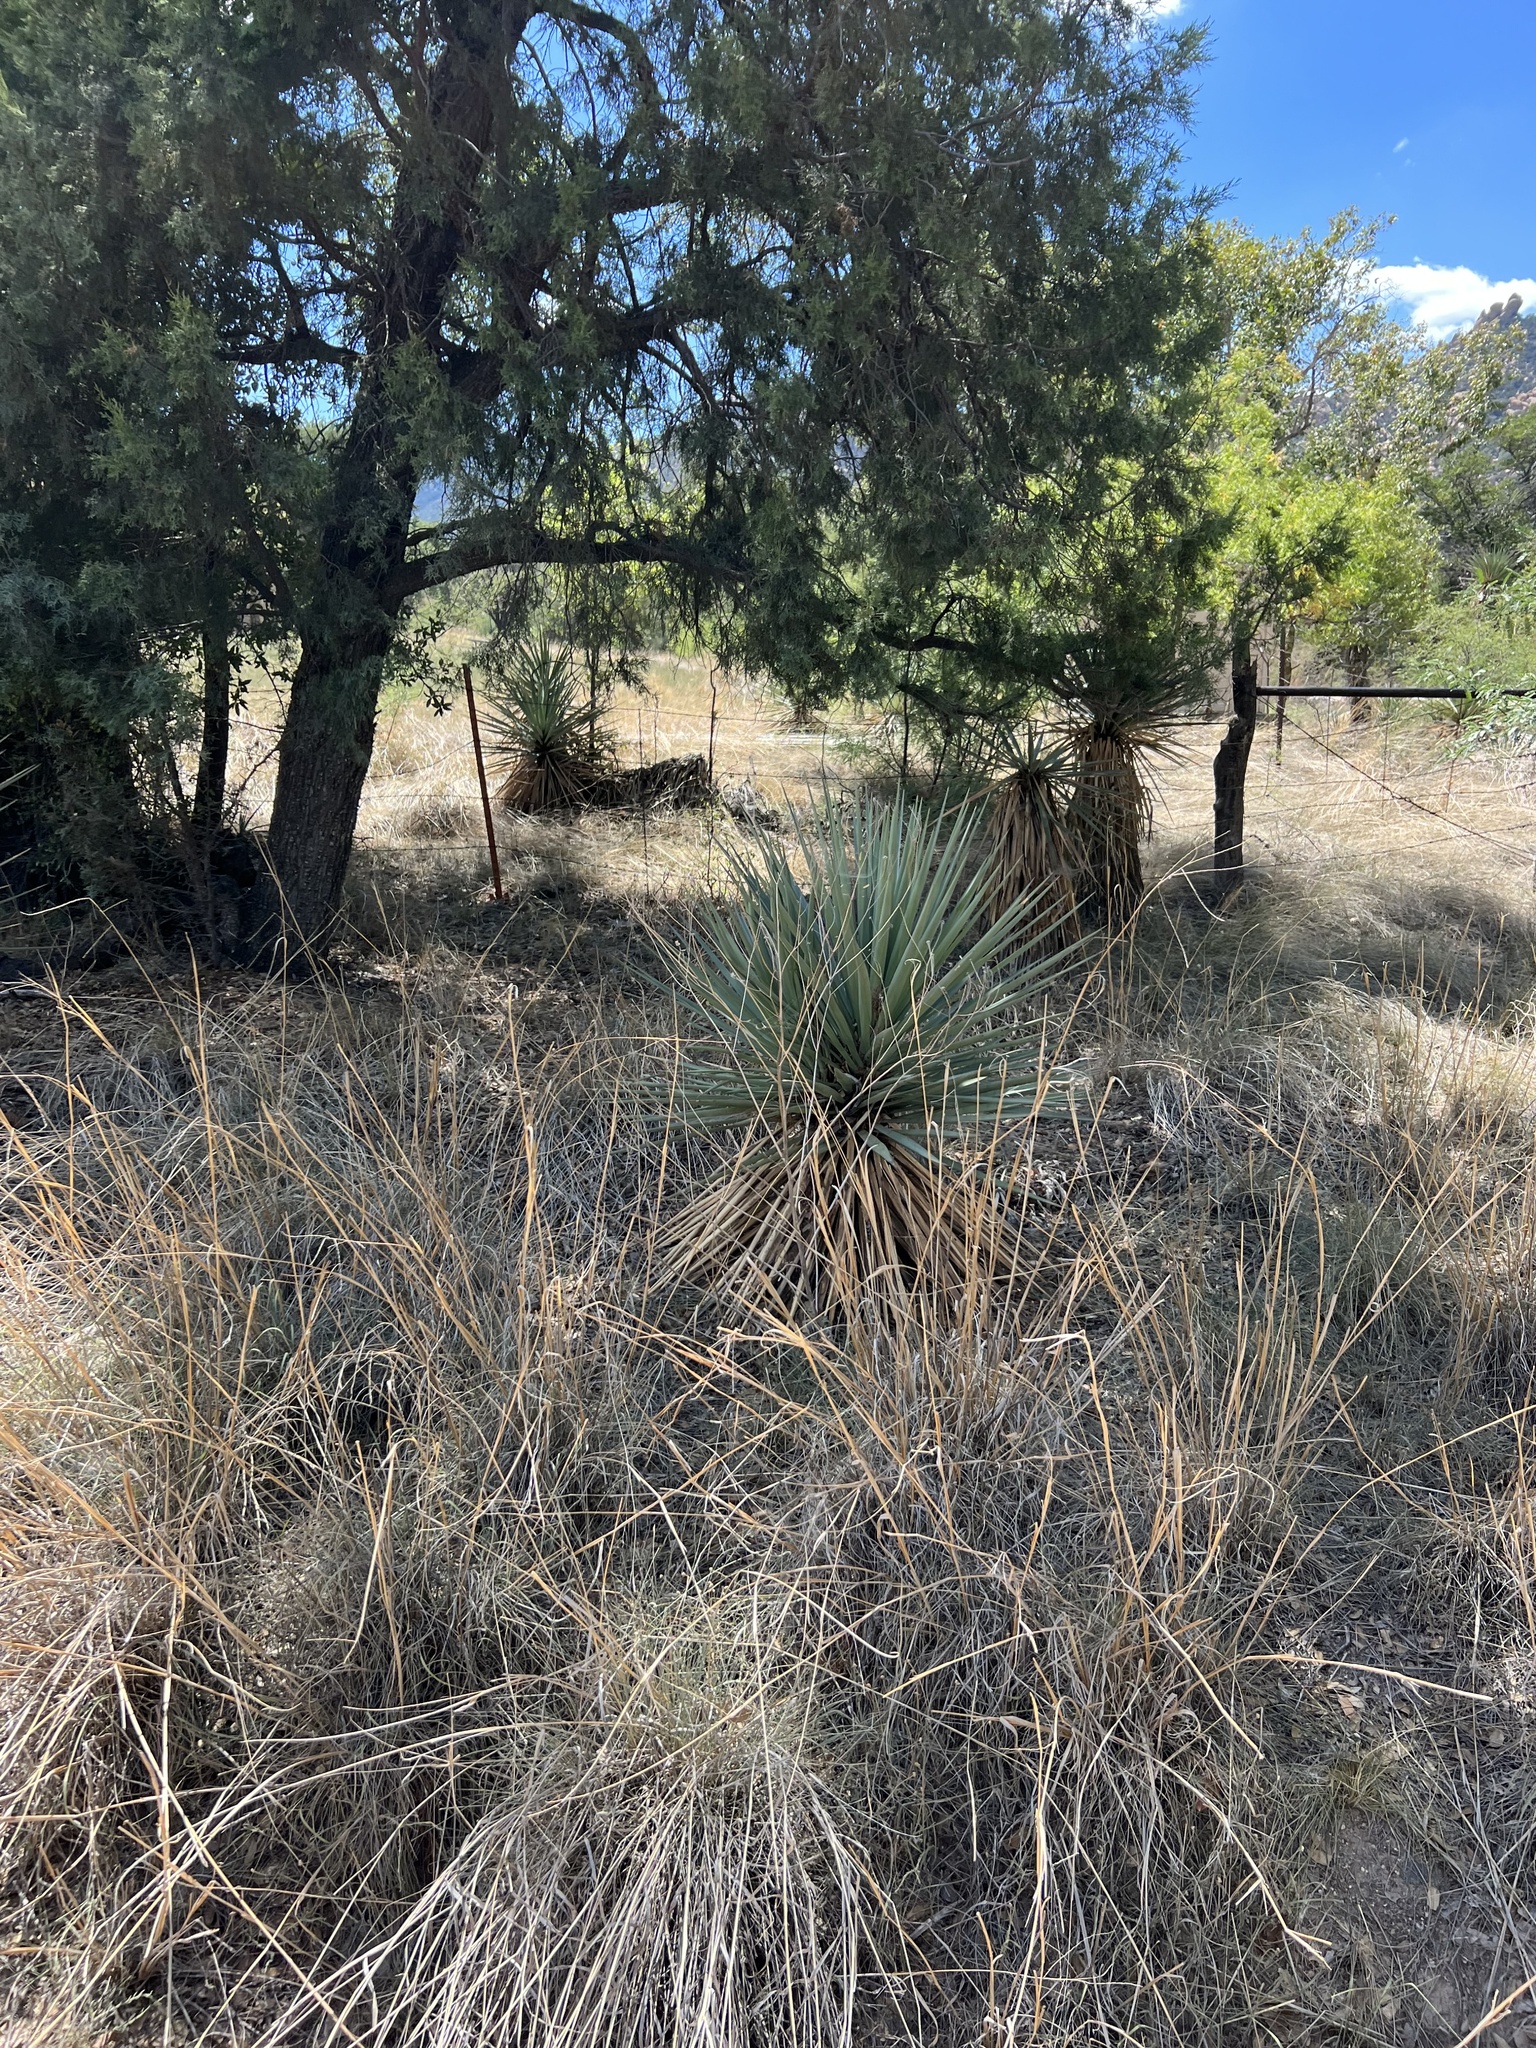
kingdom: Plantae
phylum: Tracheophyta
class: Liliopsida
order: Asparagales
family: Asparagaceae
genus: Yucca
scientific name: Yucca schottii
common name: Hoary yucca
